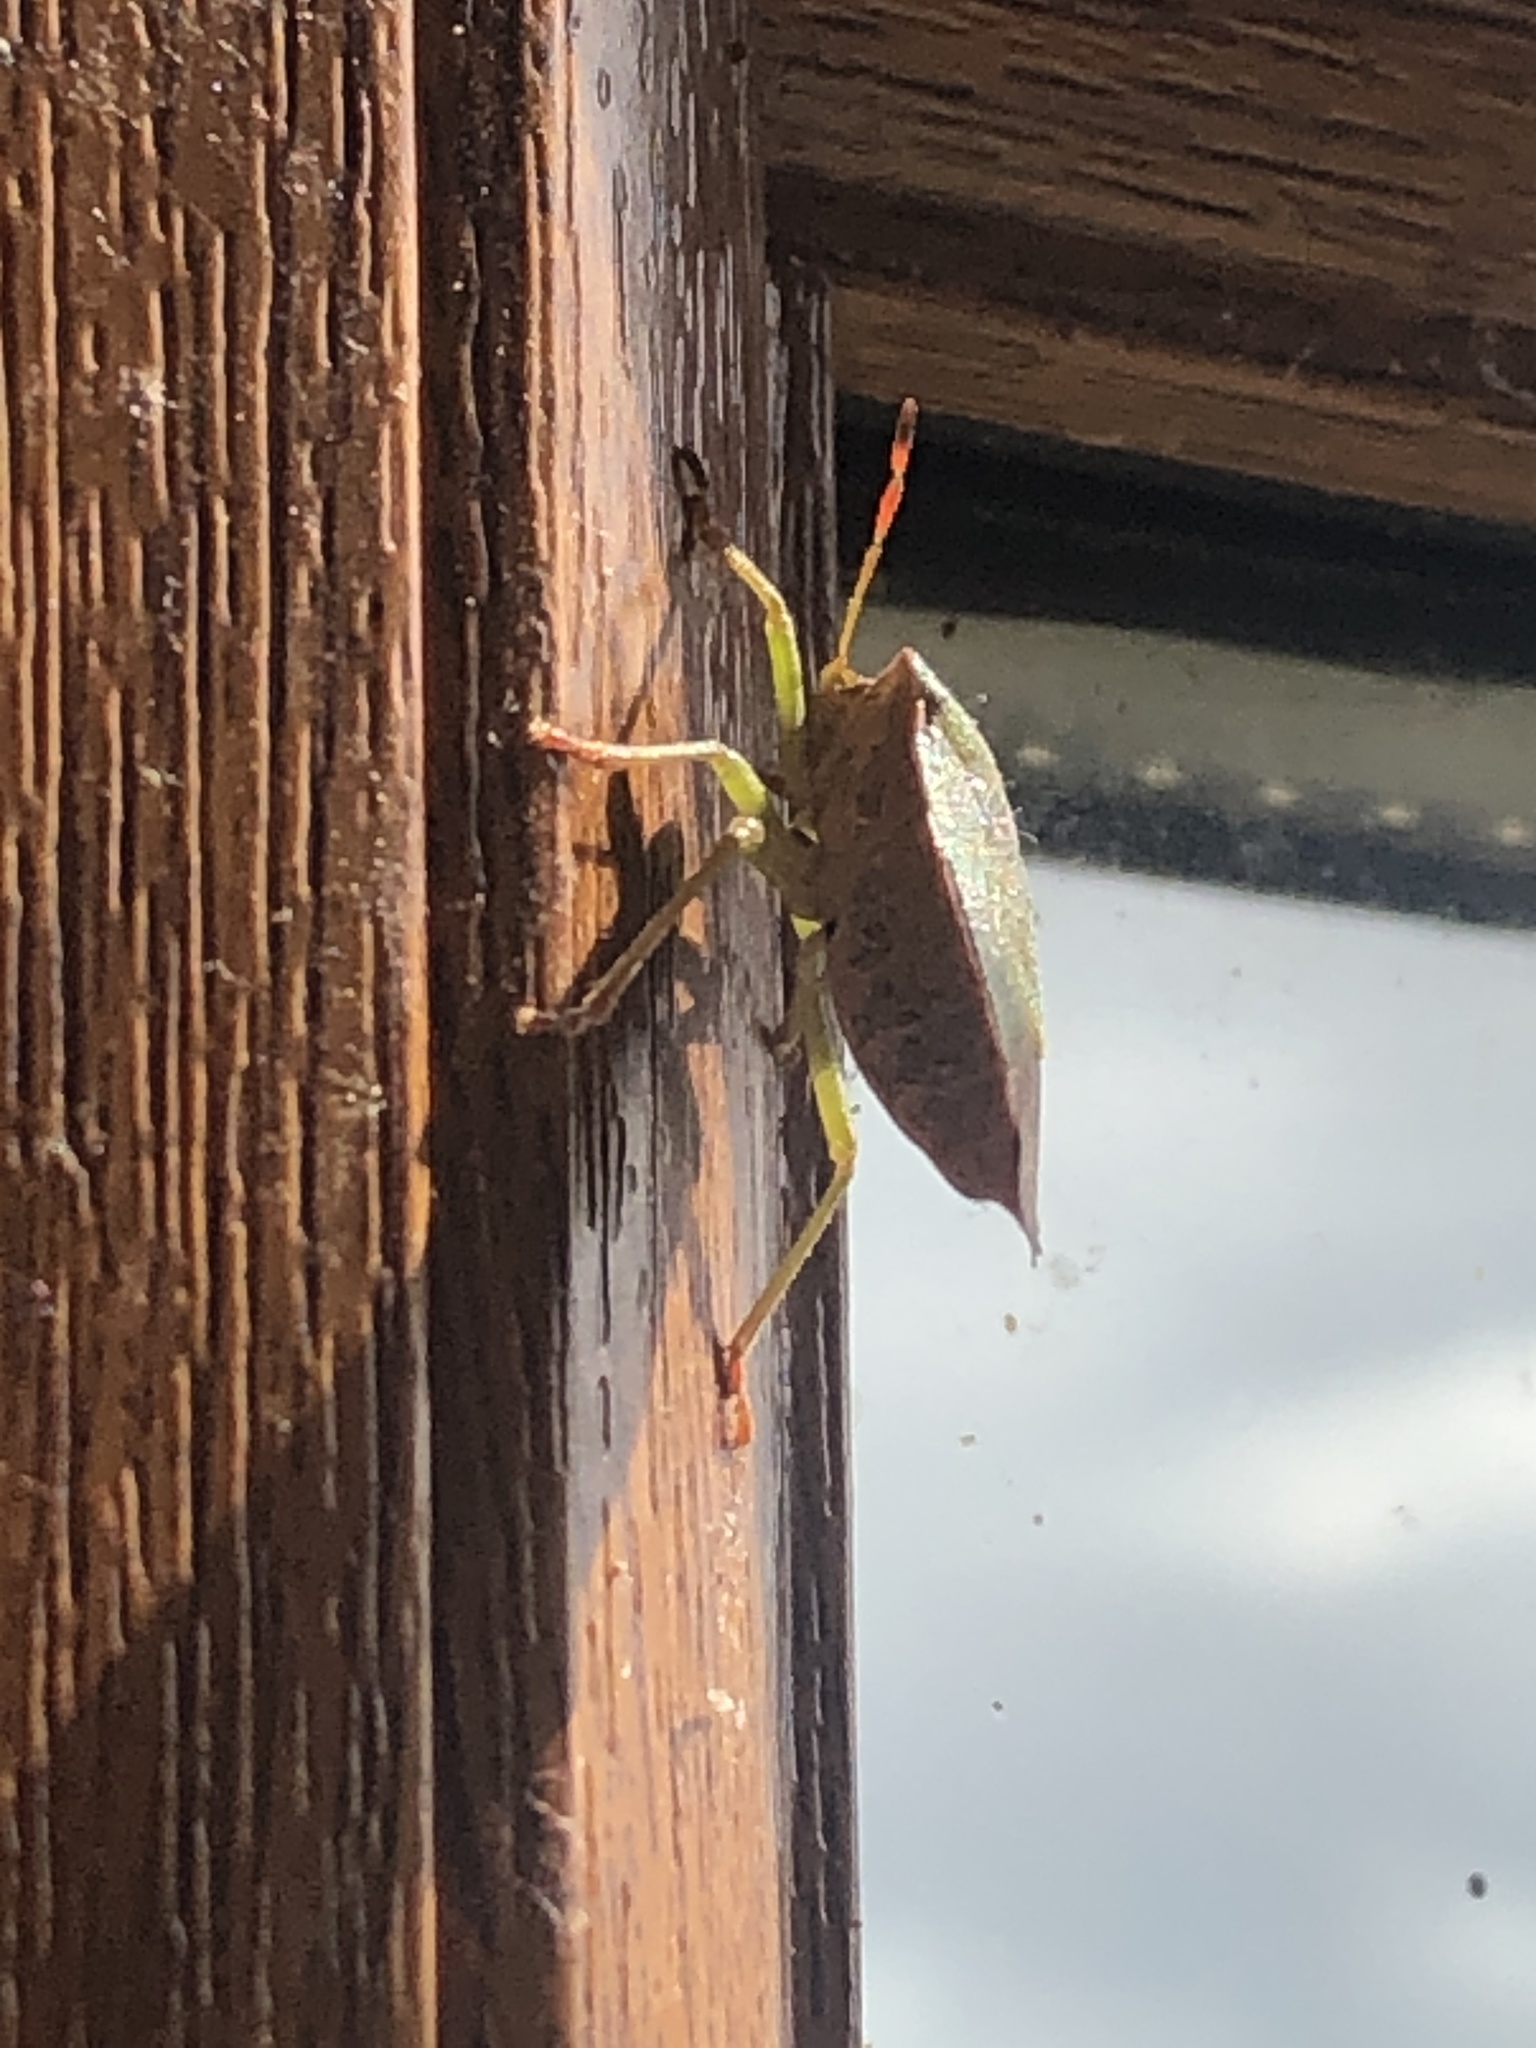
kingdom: Animalia
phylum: Arthropoda
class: Insecta
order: Hemiptera
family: Pentatomidae
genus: Palomena
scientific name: Palomena prasina
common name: Green shieldbug
